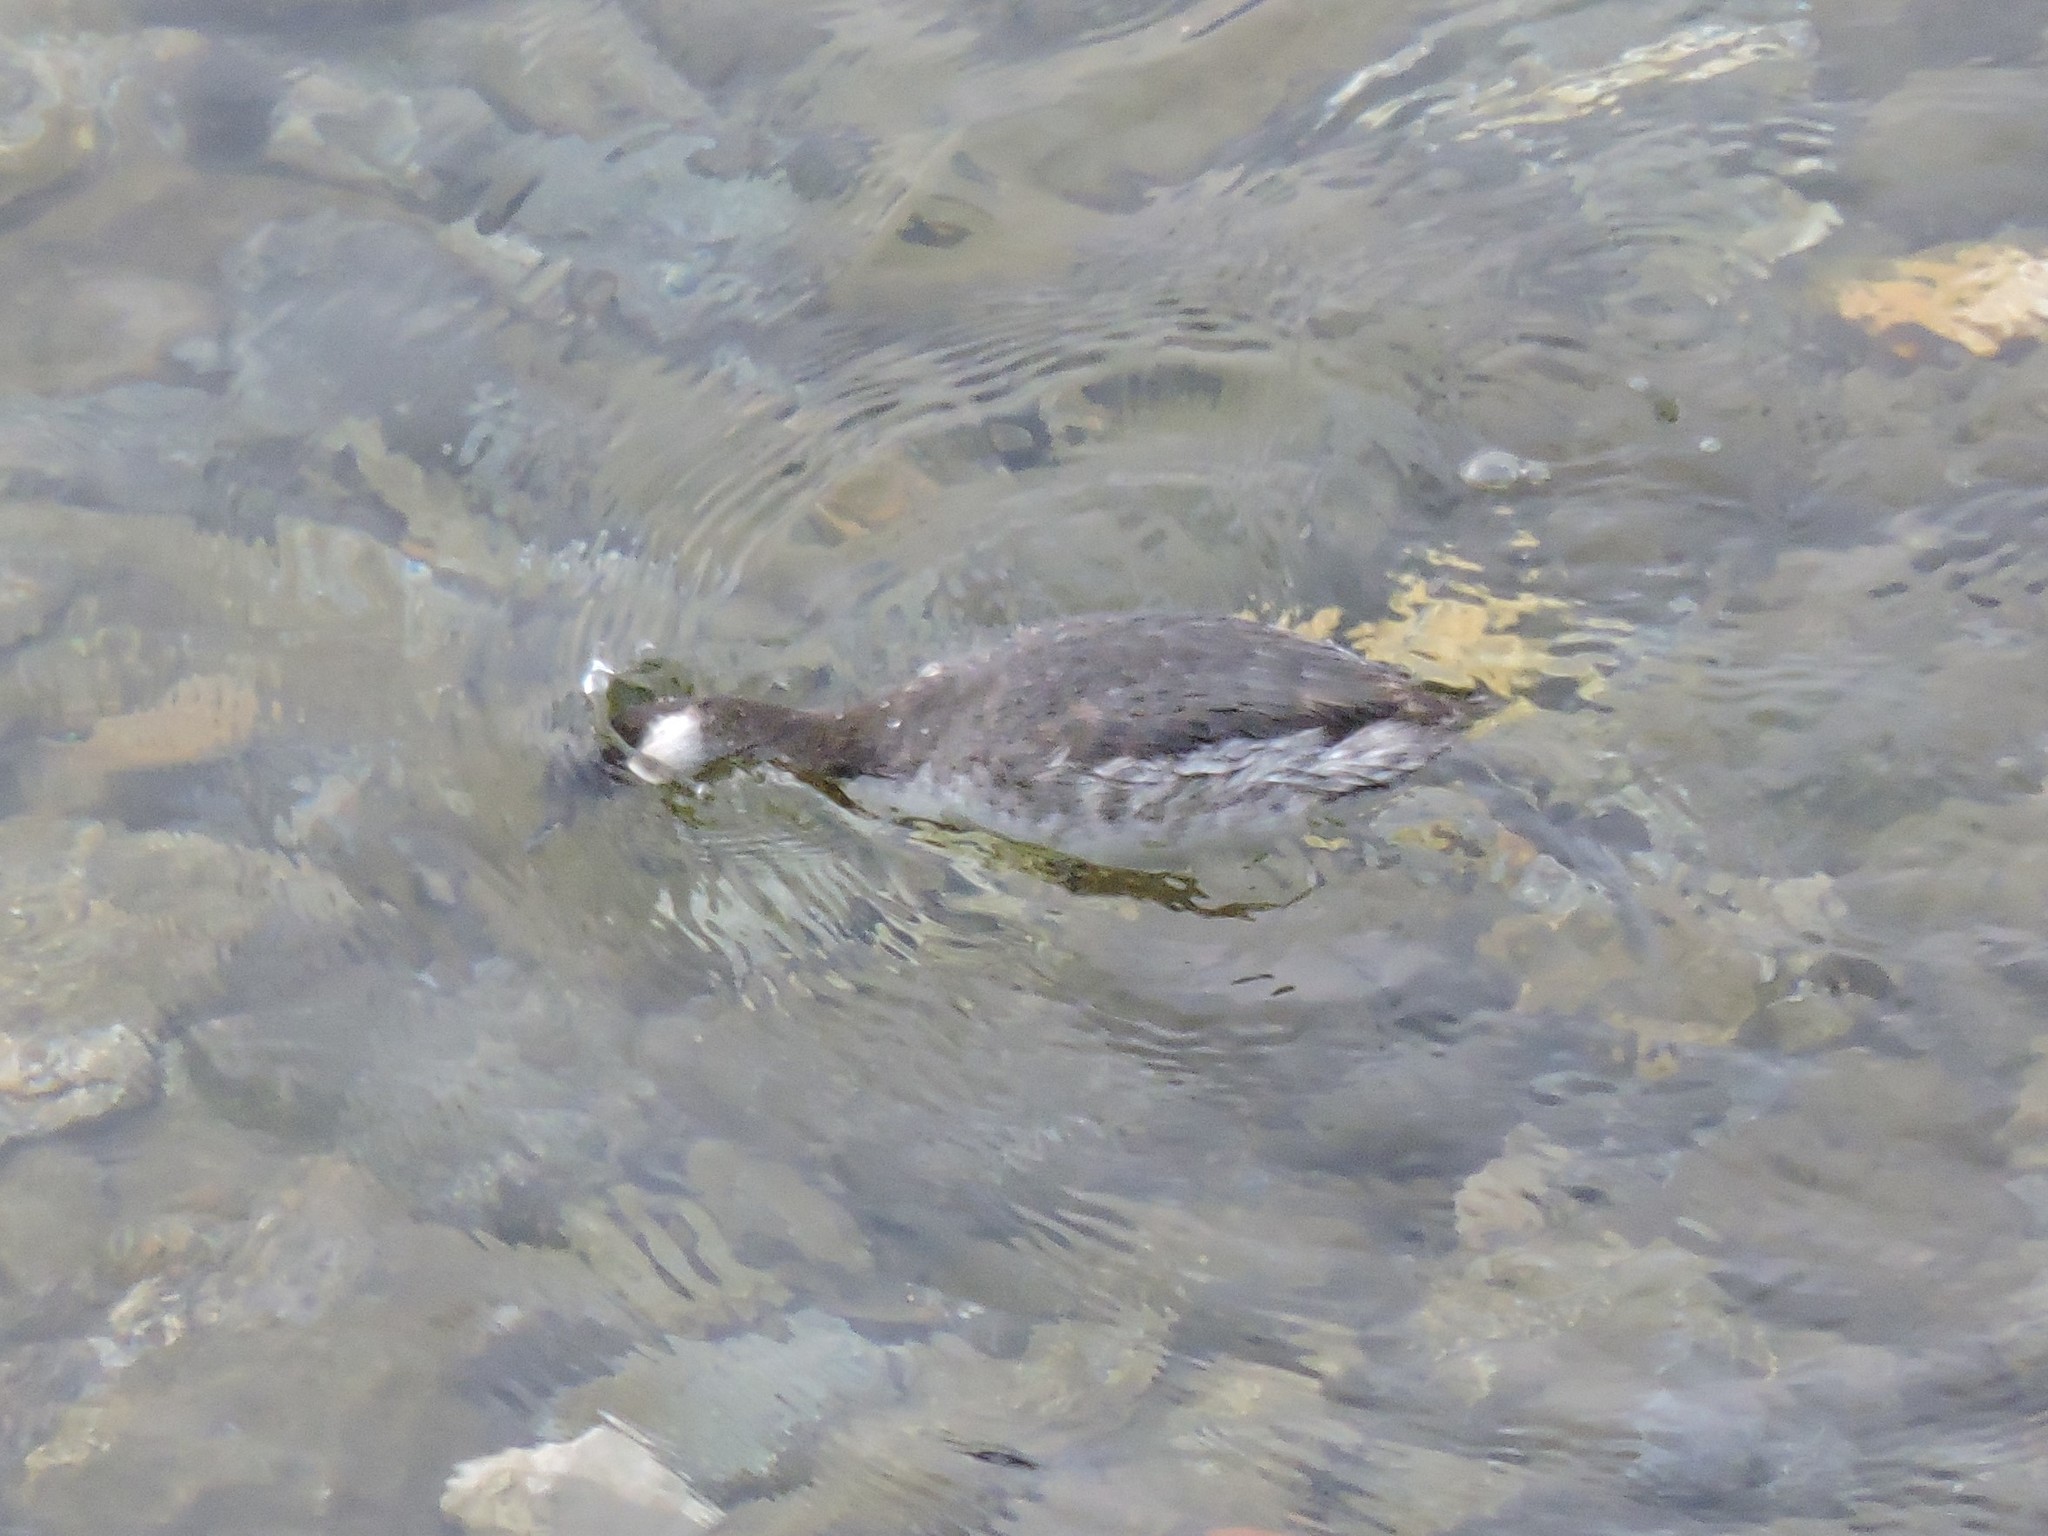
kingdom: Animalia
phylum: Chordata
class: Aves
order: Podicipediformes
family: Podicipedidae
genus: Podiceps
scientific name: Podiceps nigricollis
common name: Black-necked grebe
